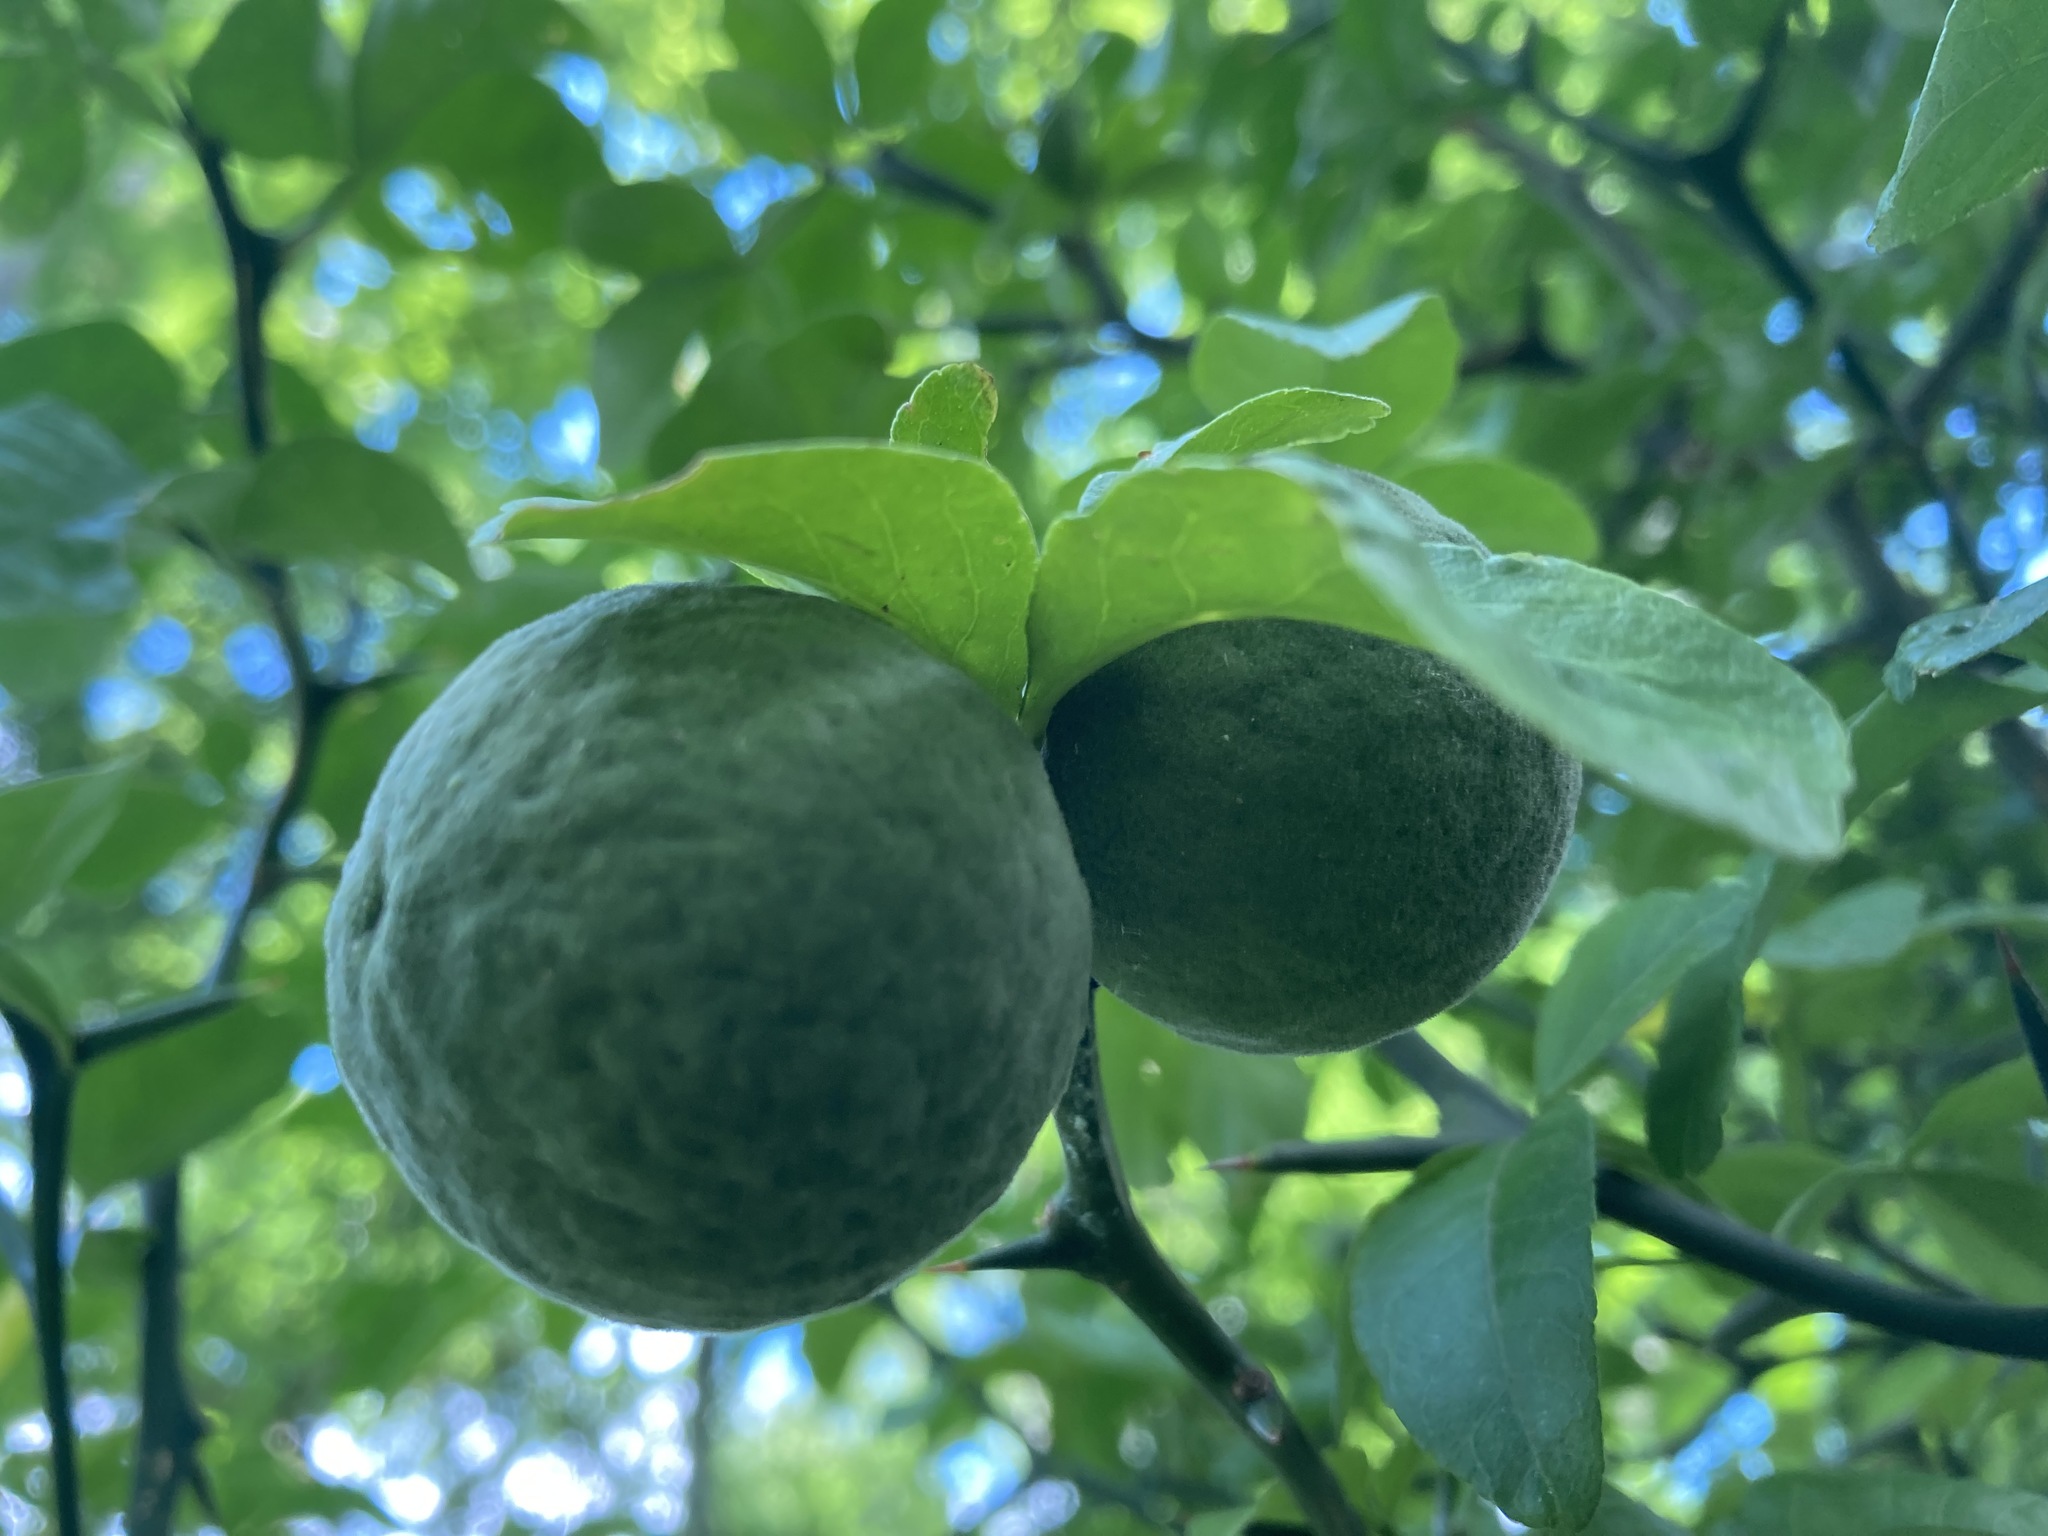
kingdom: Plantae
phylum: Tracheophyta
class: Magnoliopsida
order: Sapindales
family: Rutaceae
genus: Citrus
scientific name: Citrus trifoliata
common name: Japanese bitter-orange
